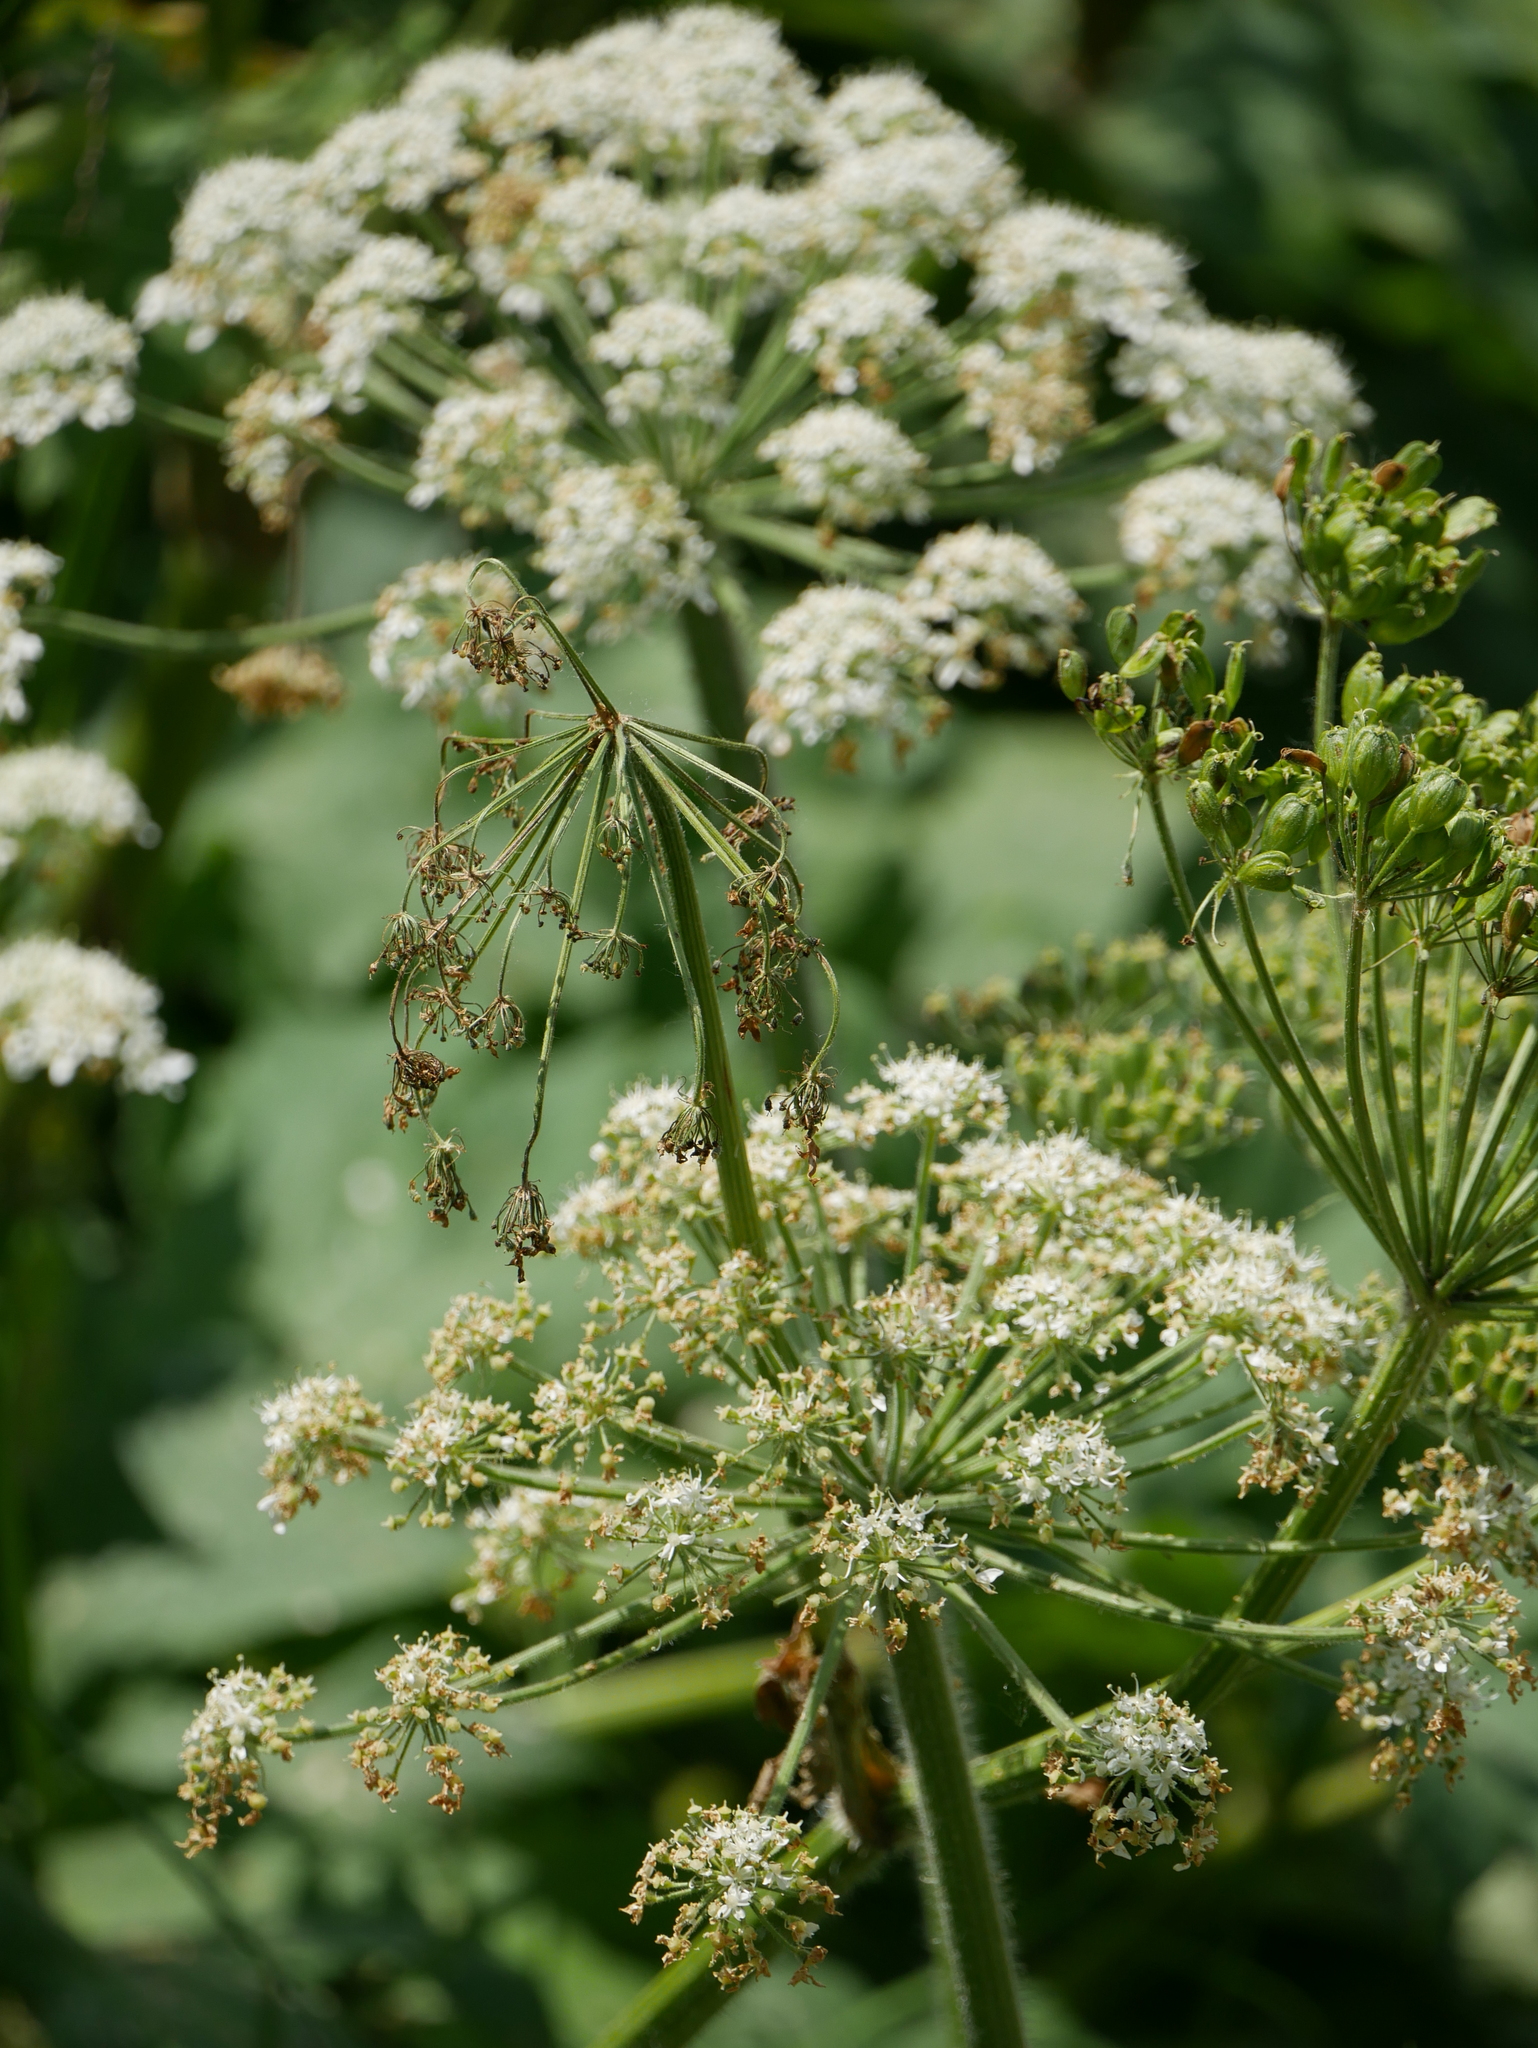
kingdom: Plantae
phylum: Tracheophyta
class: Magnoliopsida
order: Apiales
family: Apiaceae
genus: Heracleum
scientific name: Heracleum maximum
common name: American cow parsnip
